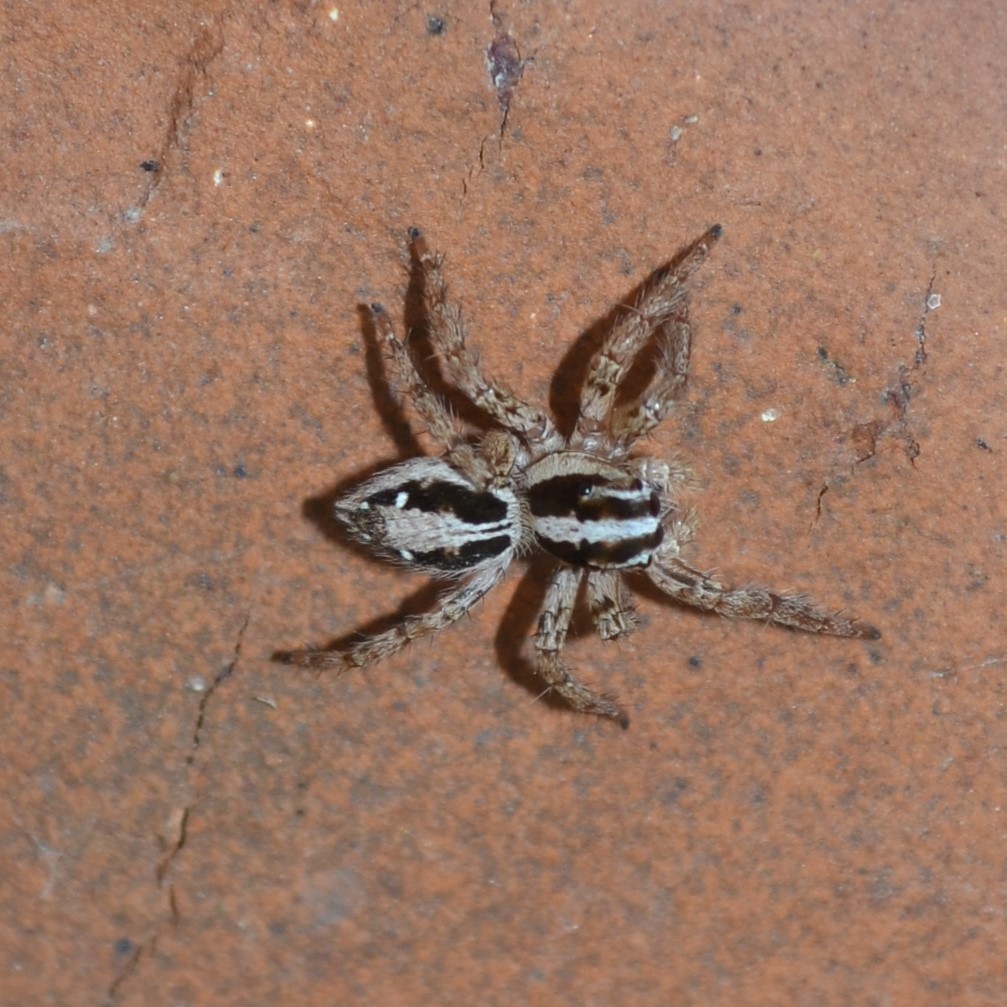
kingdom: Animalia
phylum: Arthropoda
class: Arachnida
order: Araneae
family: Salticidae
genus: Plexippus
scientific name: Plexippus paykulli
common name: Pantropical jumper
